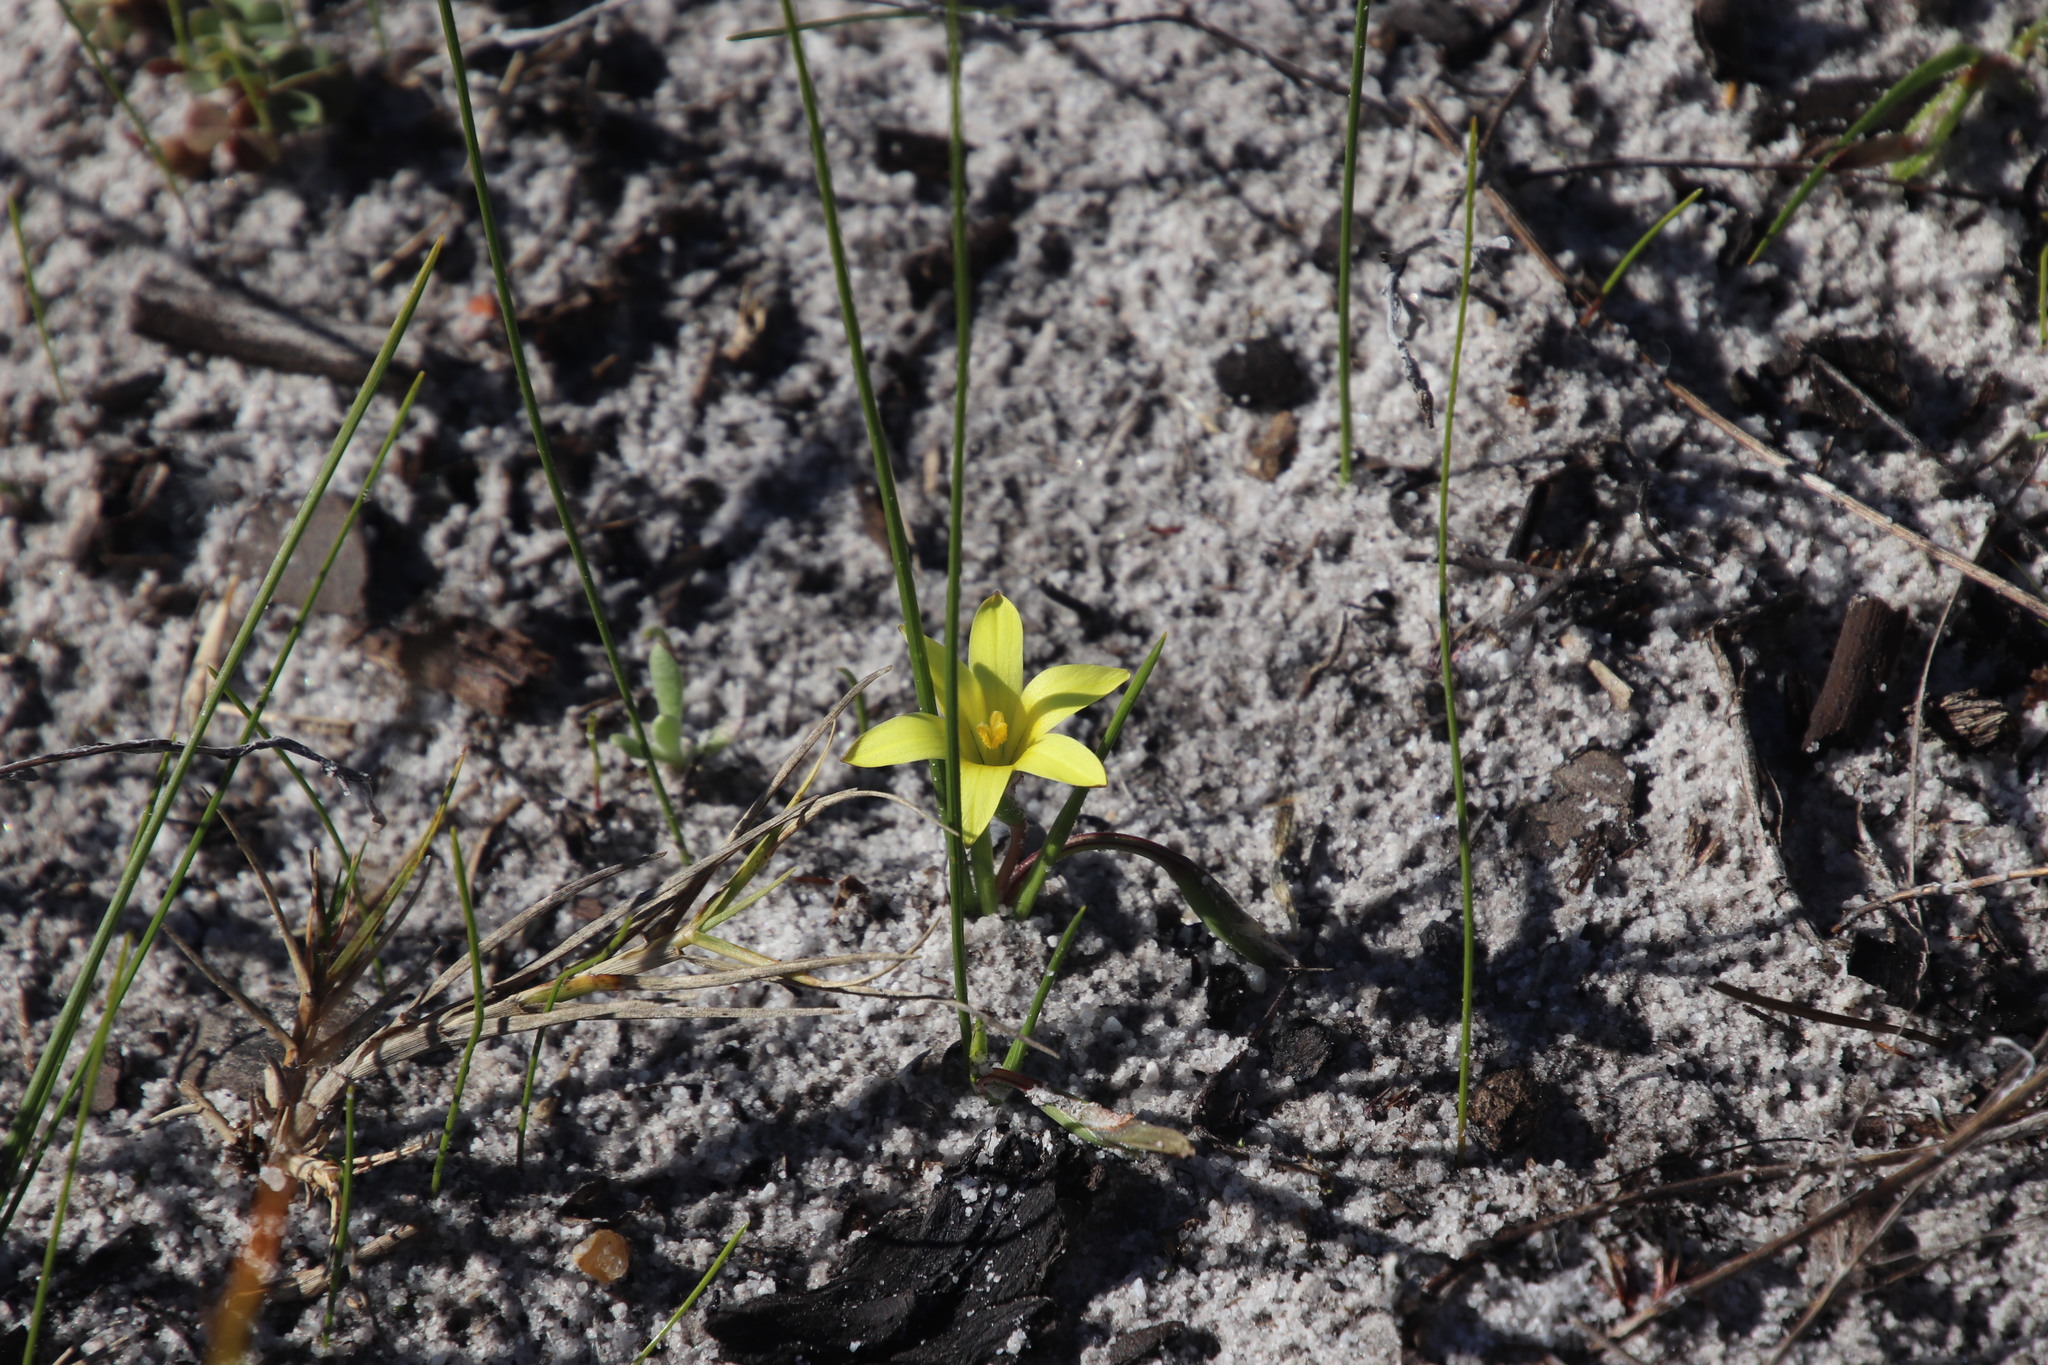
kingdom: Plantae
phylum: Tracheophyta
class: Liliopsida
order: Asparagales
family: Iridaceae
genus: Romulea
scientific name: Romulea flava
